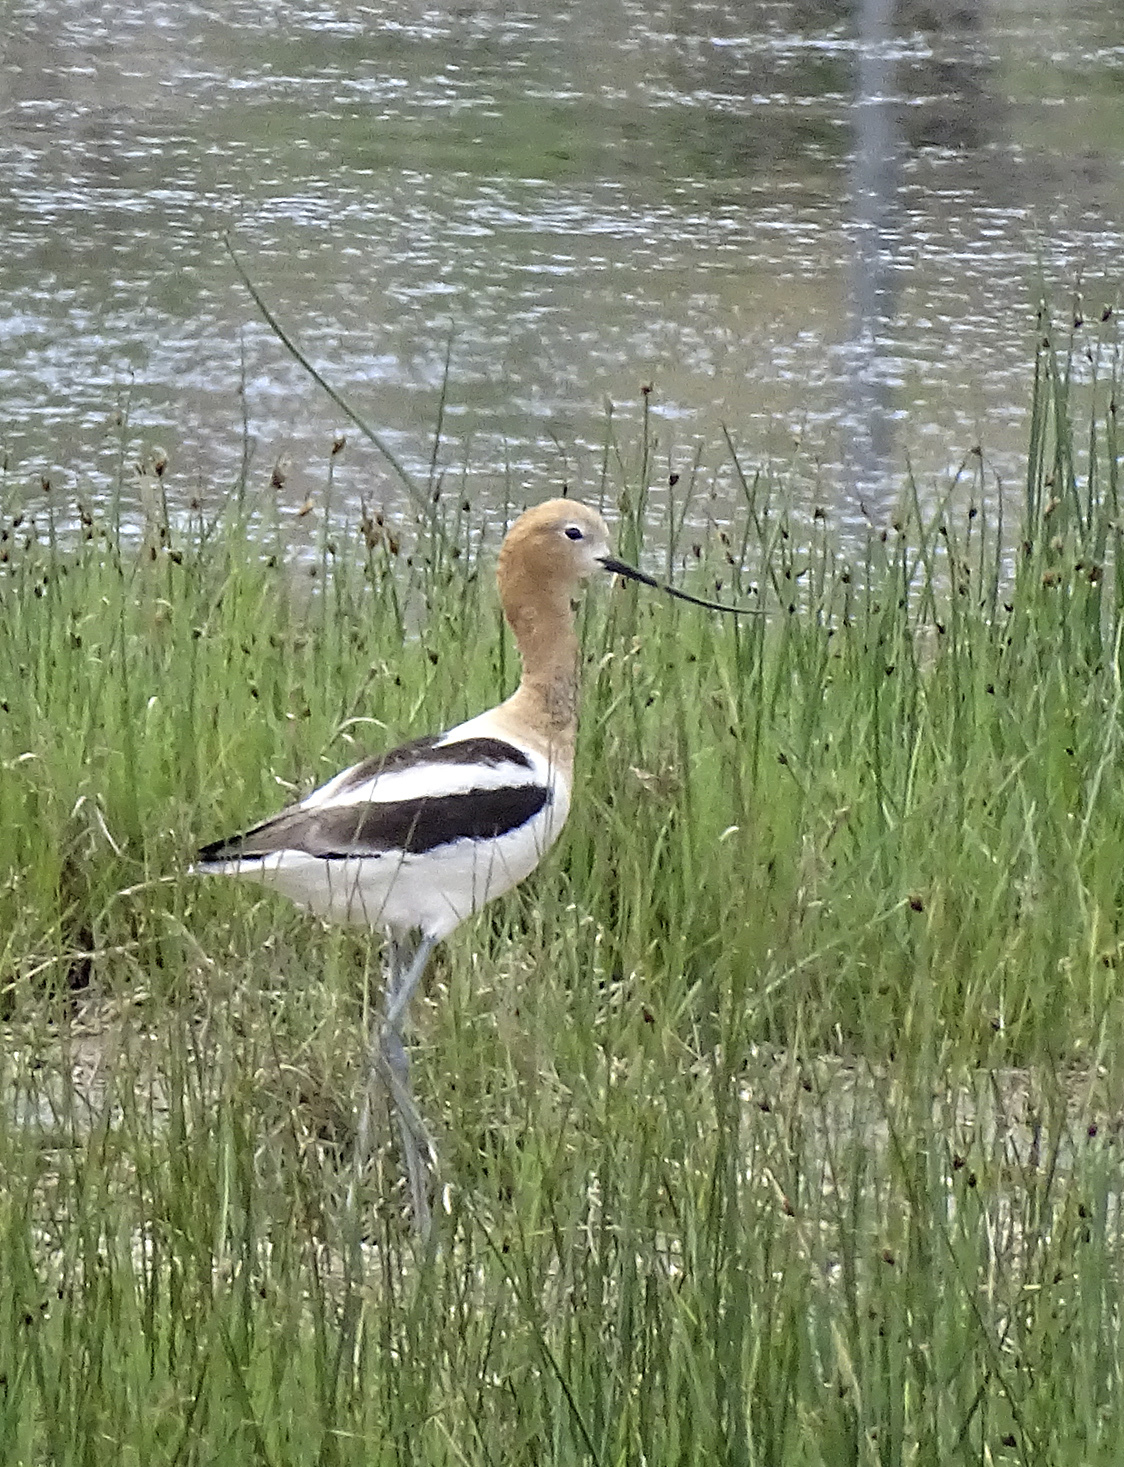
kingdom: Animalia
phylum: Chordata
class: Aves
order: Charadriiformes
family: Recurvirostridae
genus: Recurvirostra
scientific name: Recurvirostra americana
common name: American avocet
